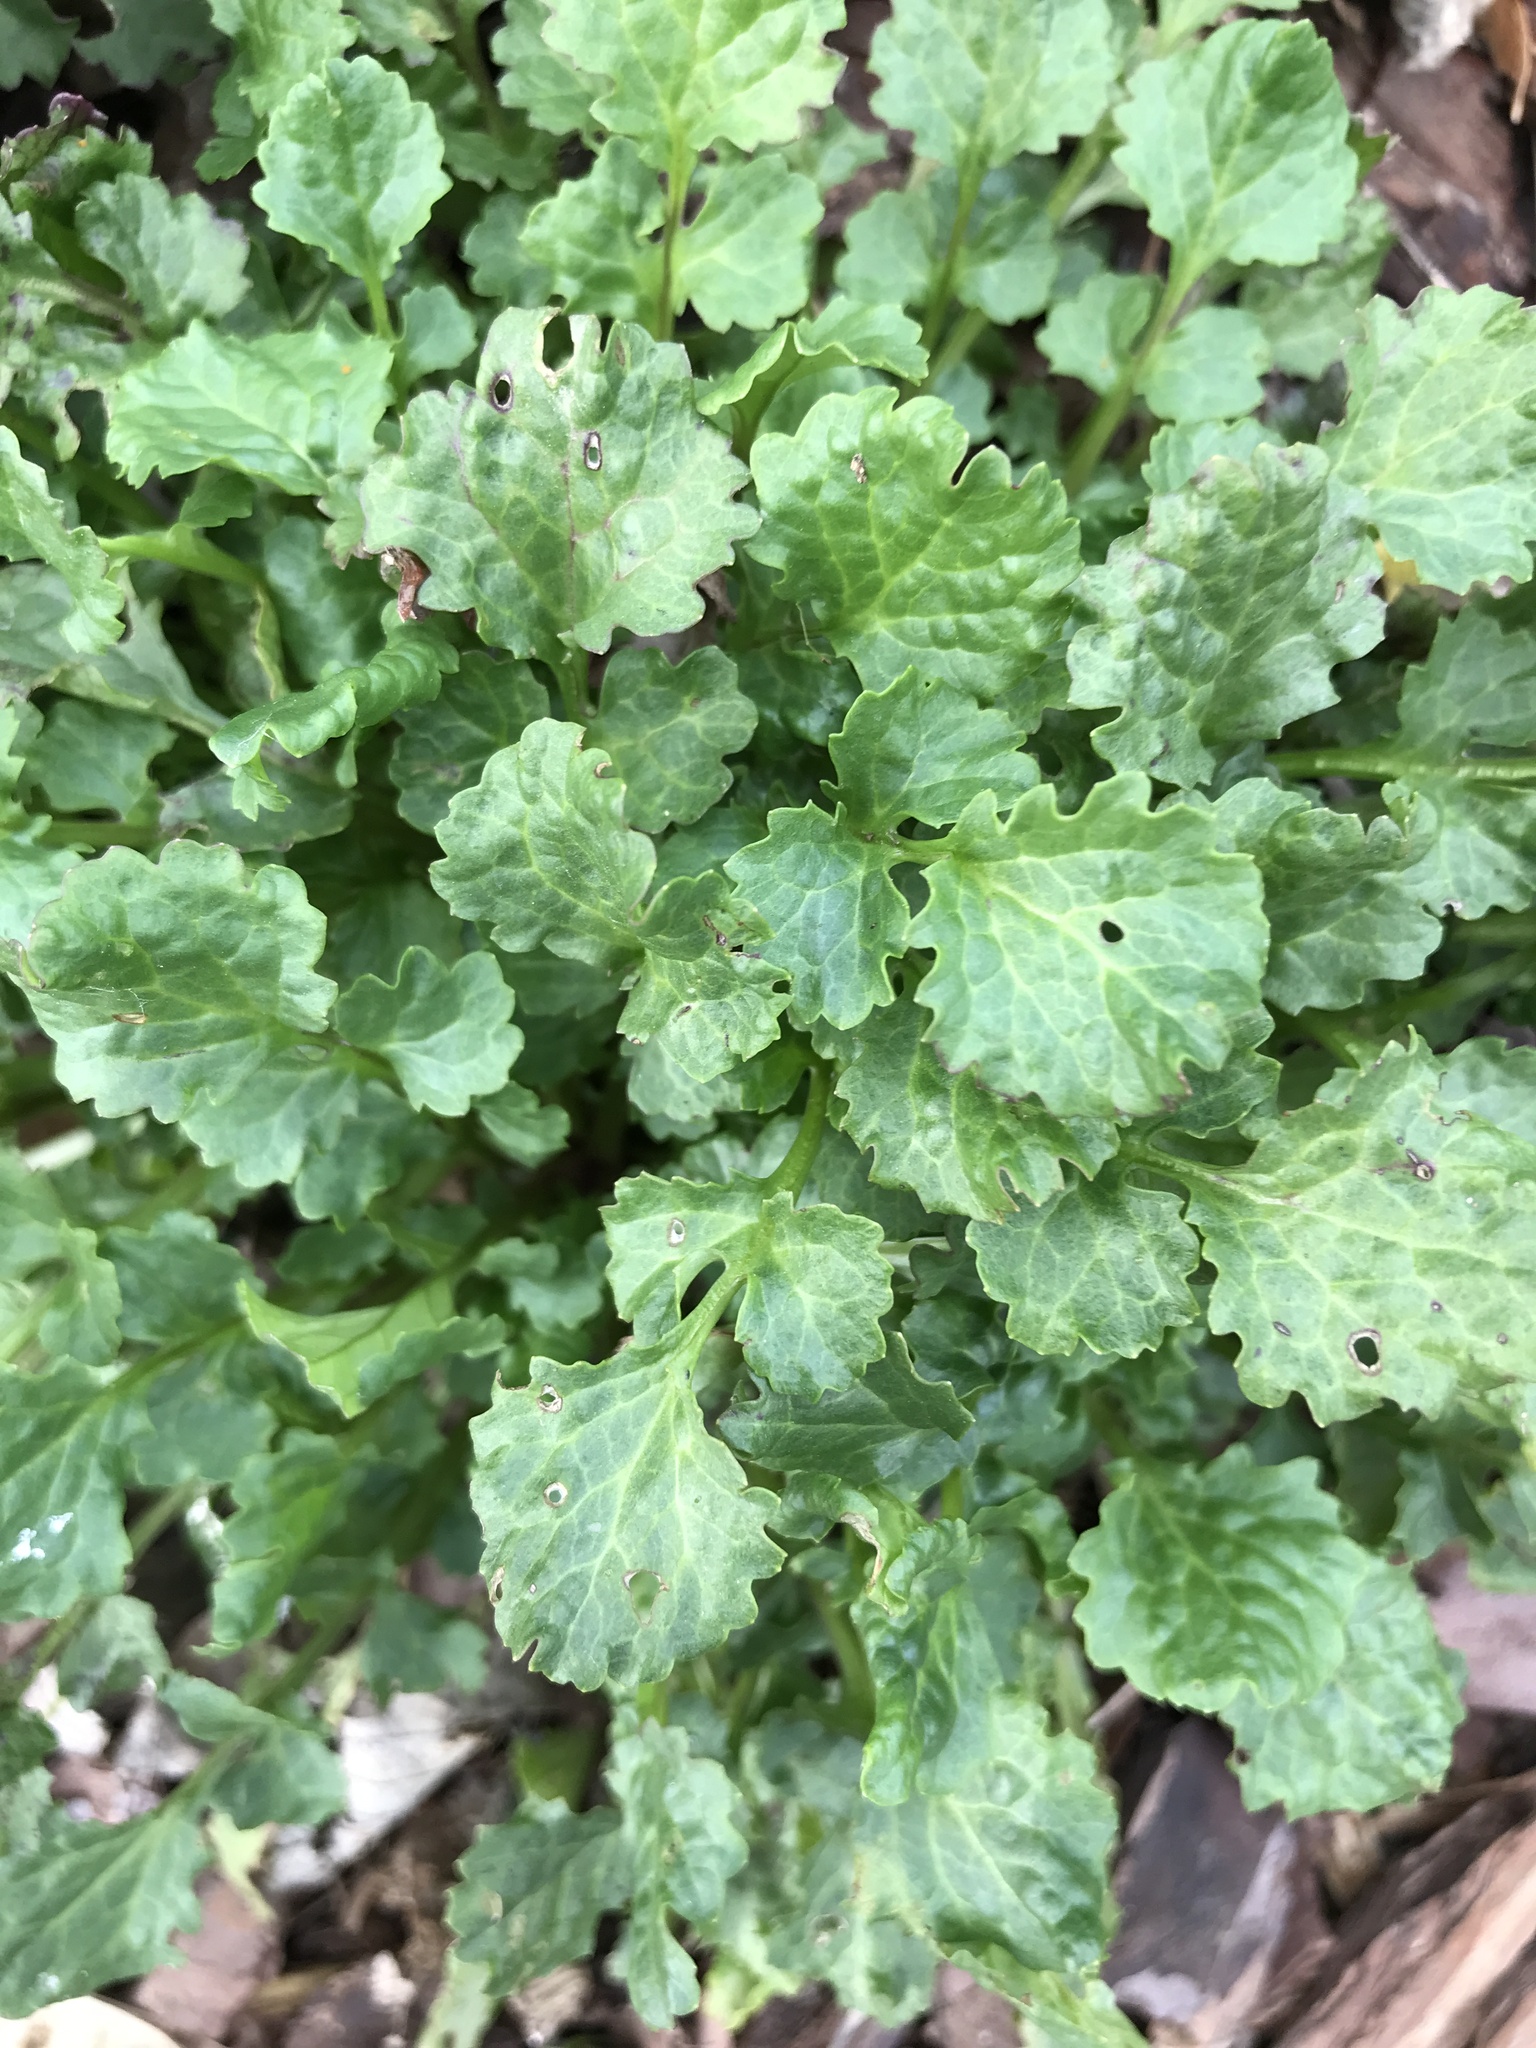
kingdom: Plantae
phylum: Tracheophyta
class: Magnoliopsida
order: Asterales
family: Asteraceae
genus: Packera
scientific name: Packera glabella
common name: Butterweed
